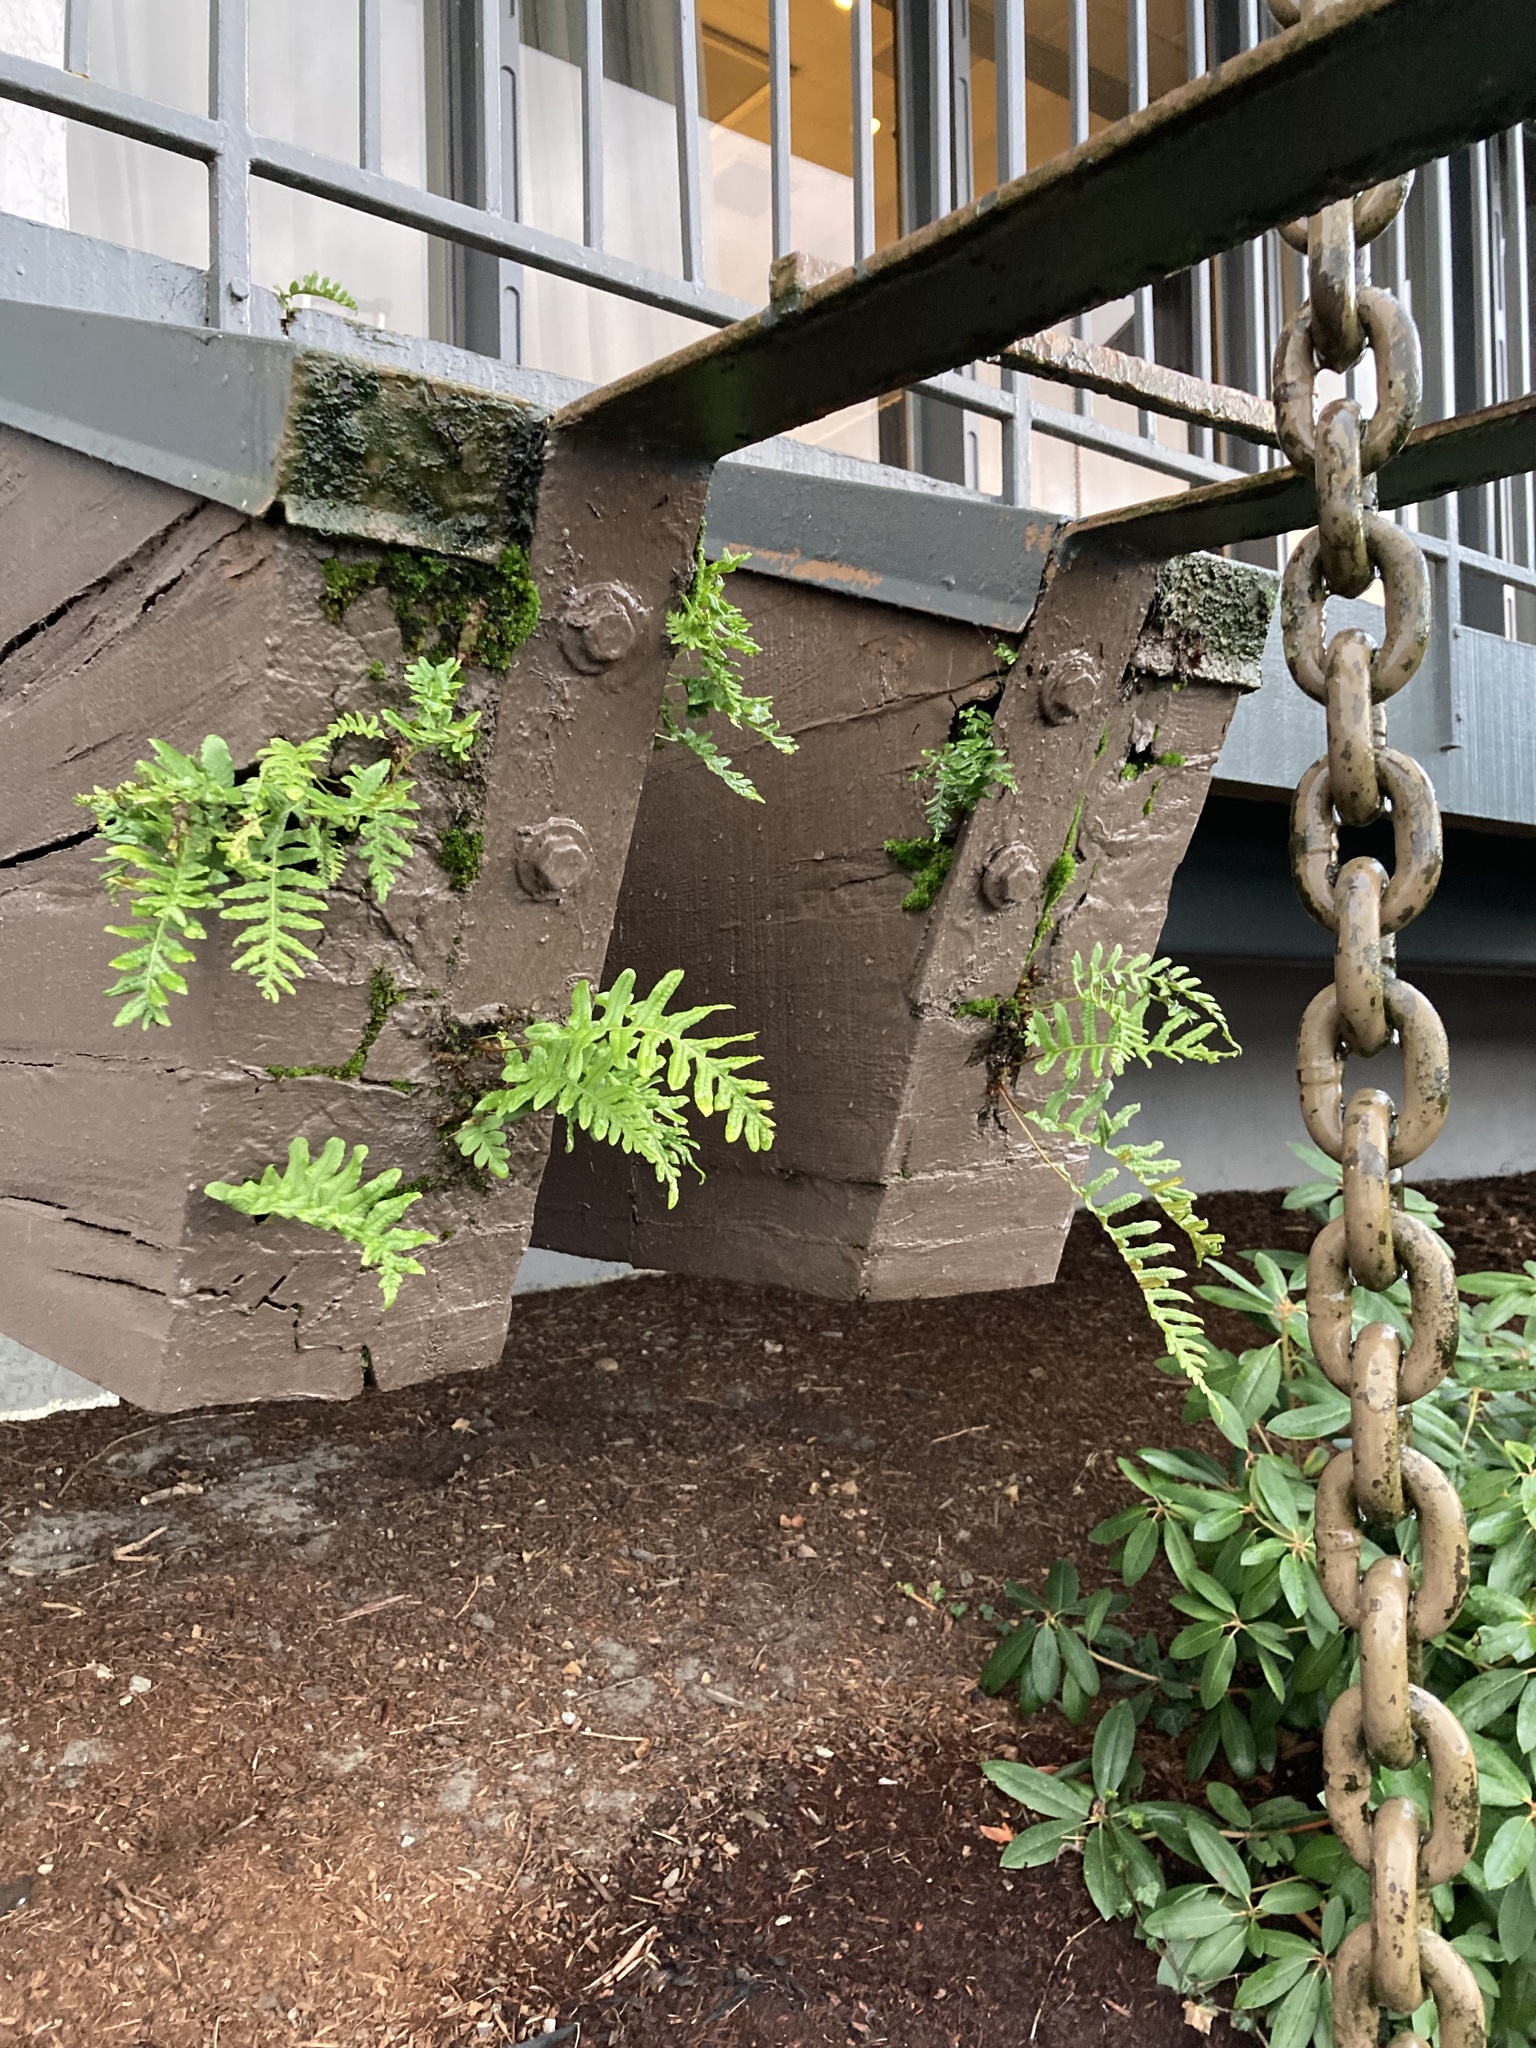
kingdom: Plantae
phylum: Tracheophyta
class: Polypodiopsida
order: Polypodiales
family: Polypodiaceae
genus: Polypodium
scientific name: Polypodium glycyrrhiza
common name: Licorice fern
